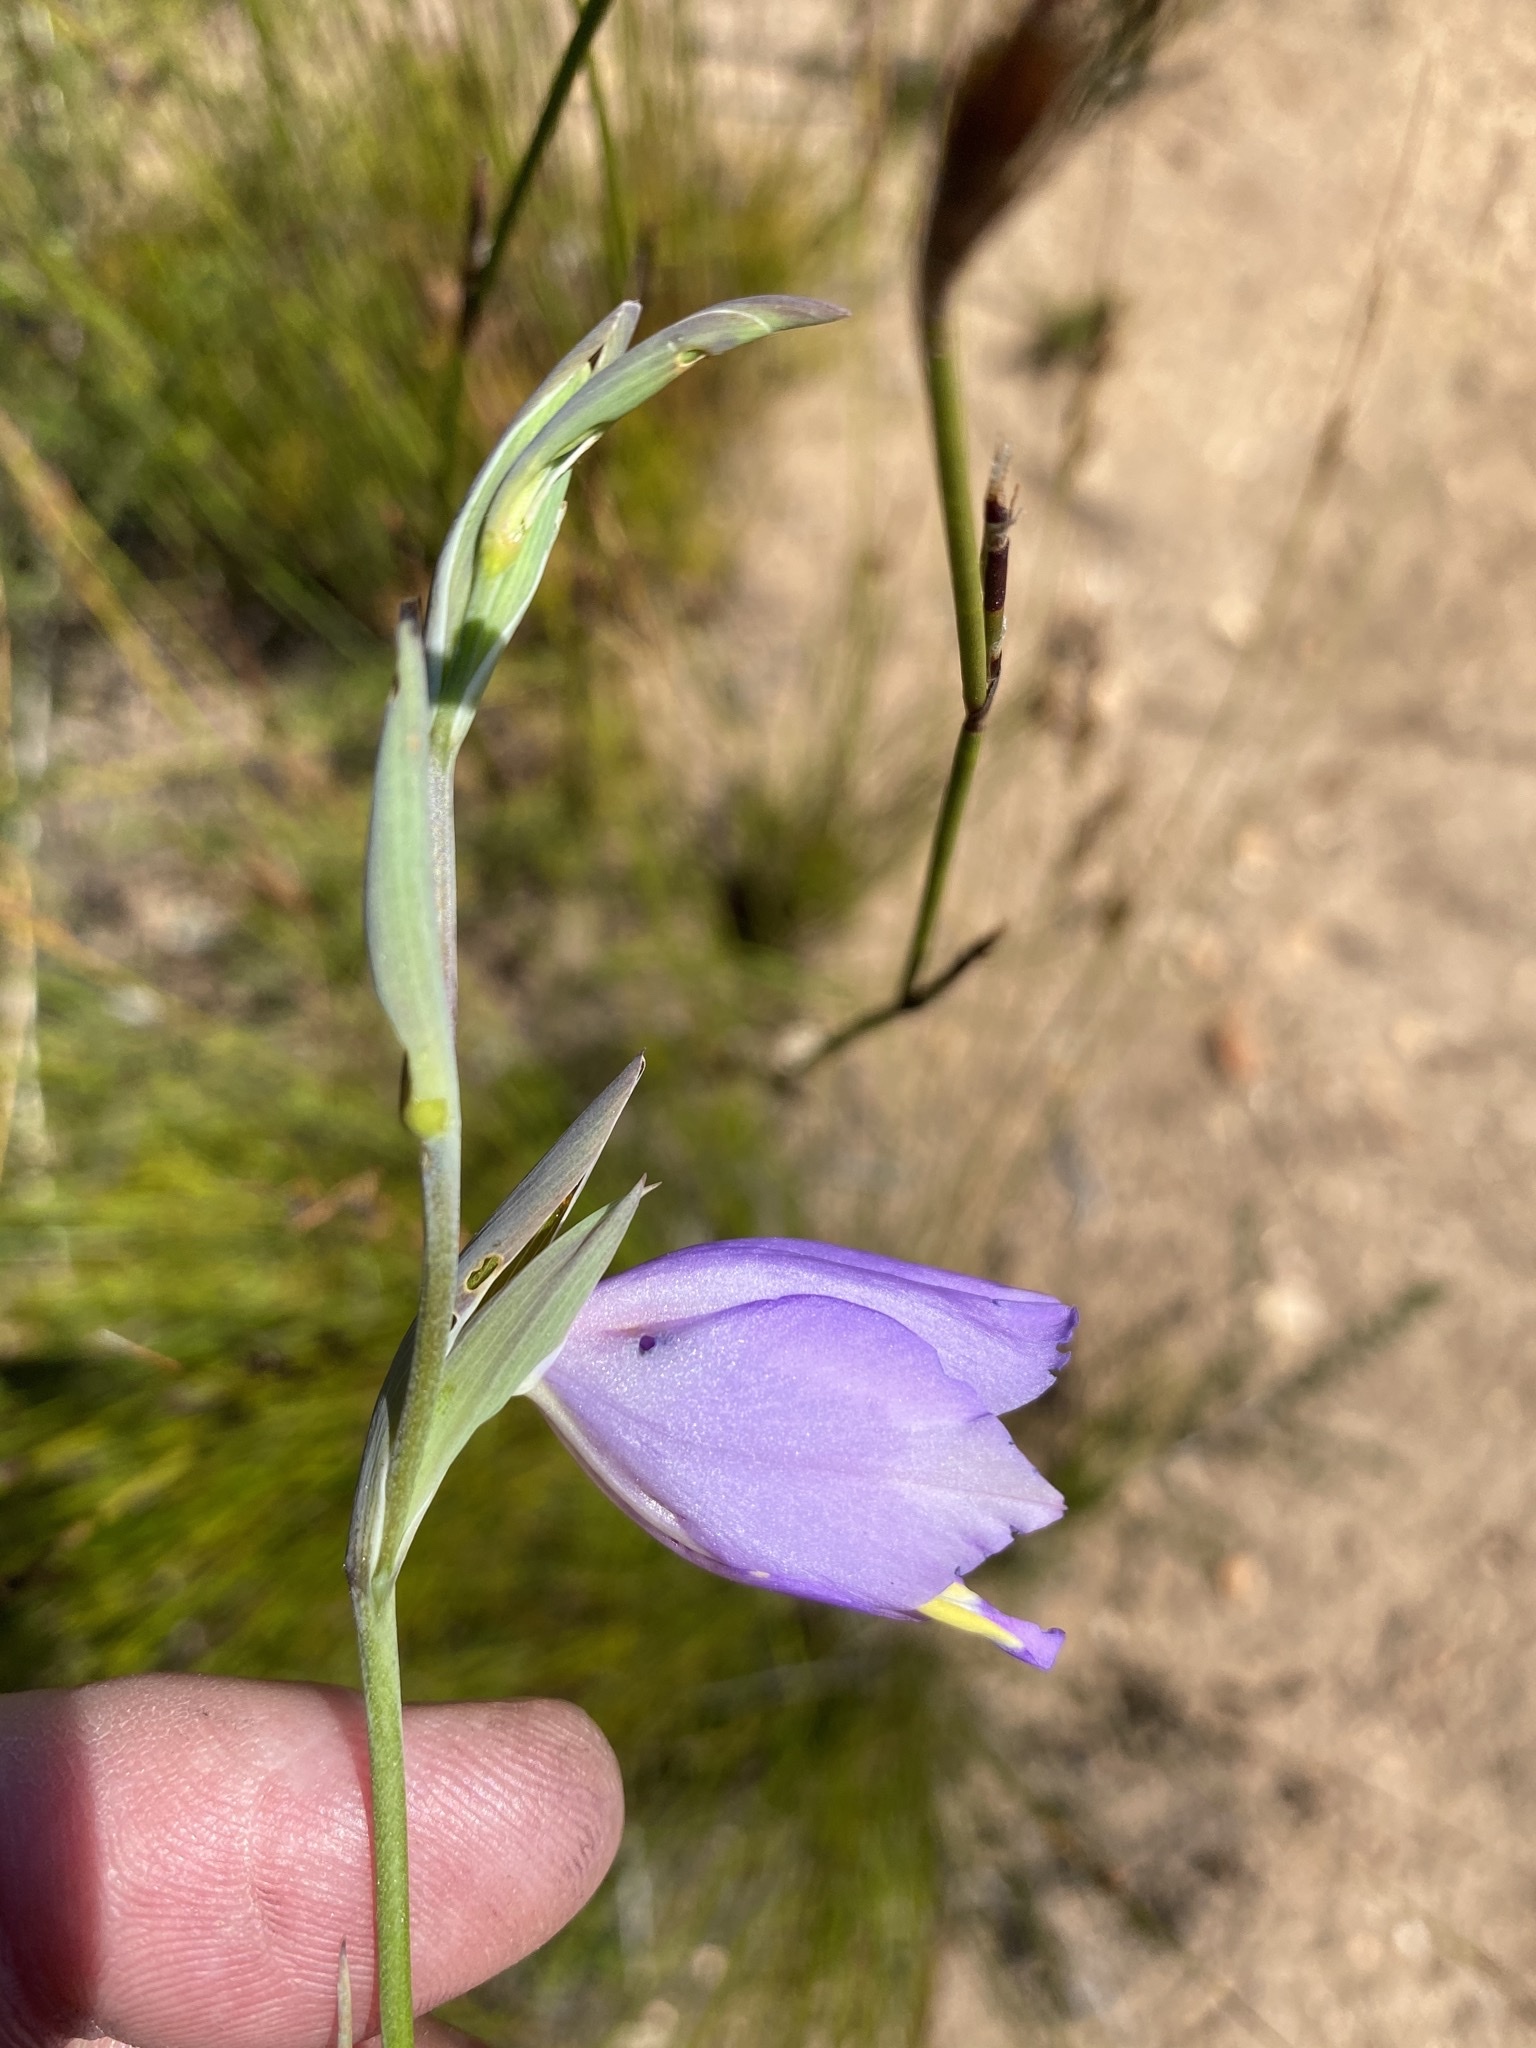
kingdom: Plantae
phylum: Tracheophyta
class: Liliopsida
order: Asparagales
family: Iridaceae
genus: Gladiolus
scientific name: Gladiolus patersoniae
